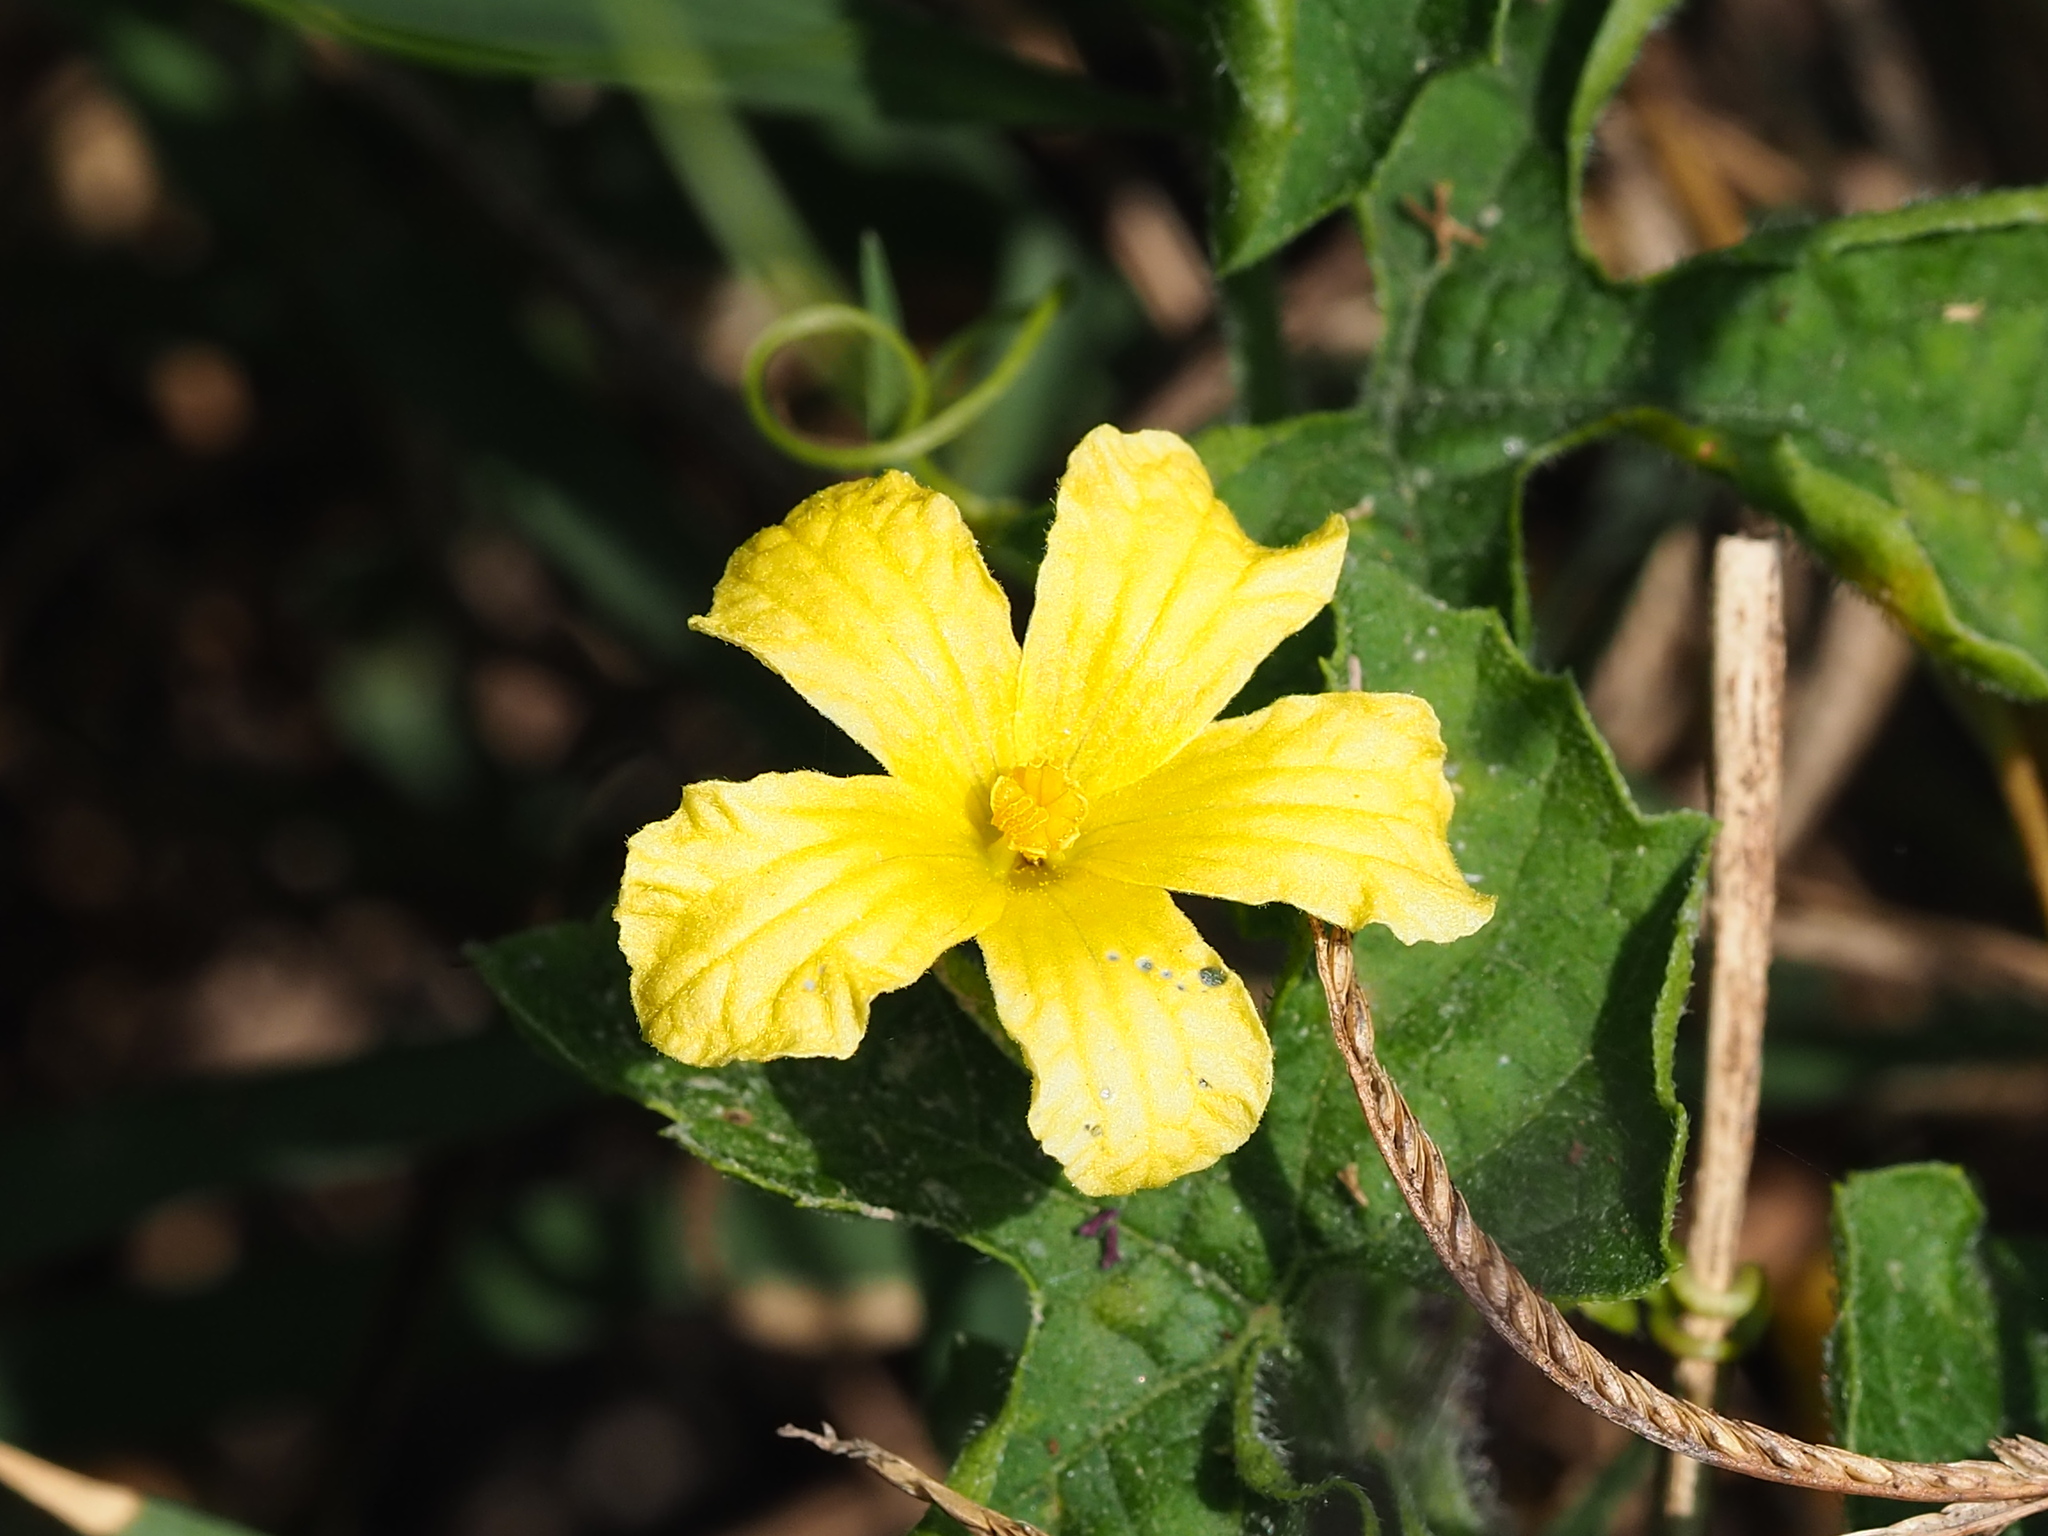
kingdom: Plantae
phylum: Tracheophyta
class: Magnoliopsida
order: Cucurbitales
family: Cucurbitaceae
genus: Momordica
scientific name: Momordica charantia
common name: Balsampear
